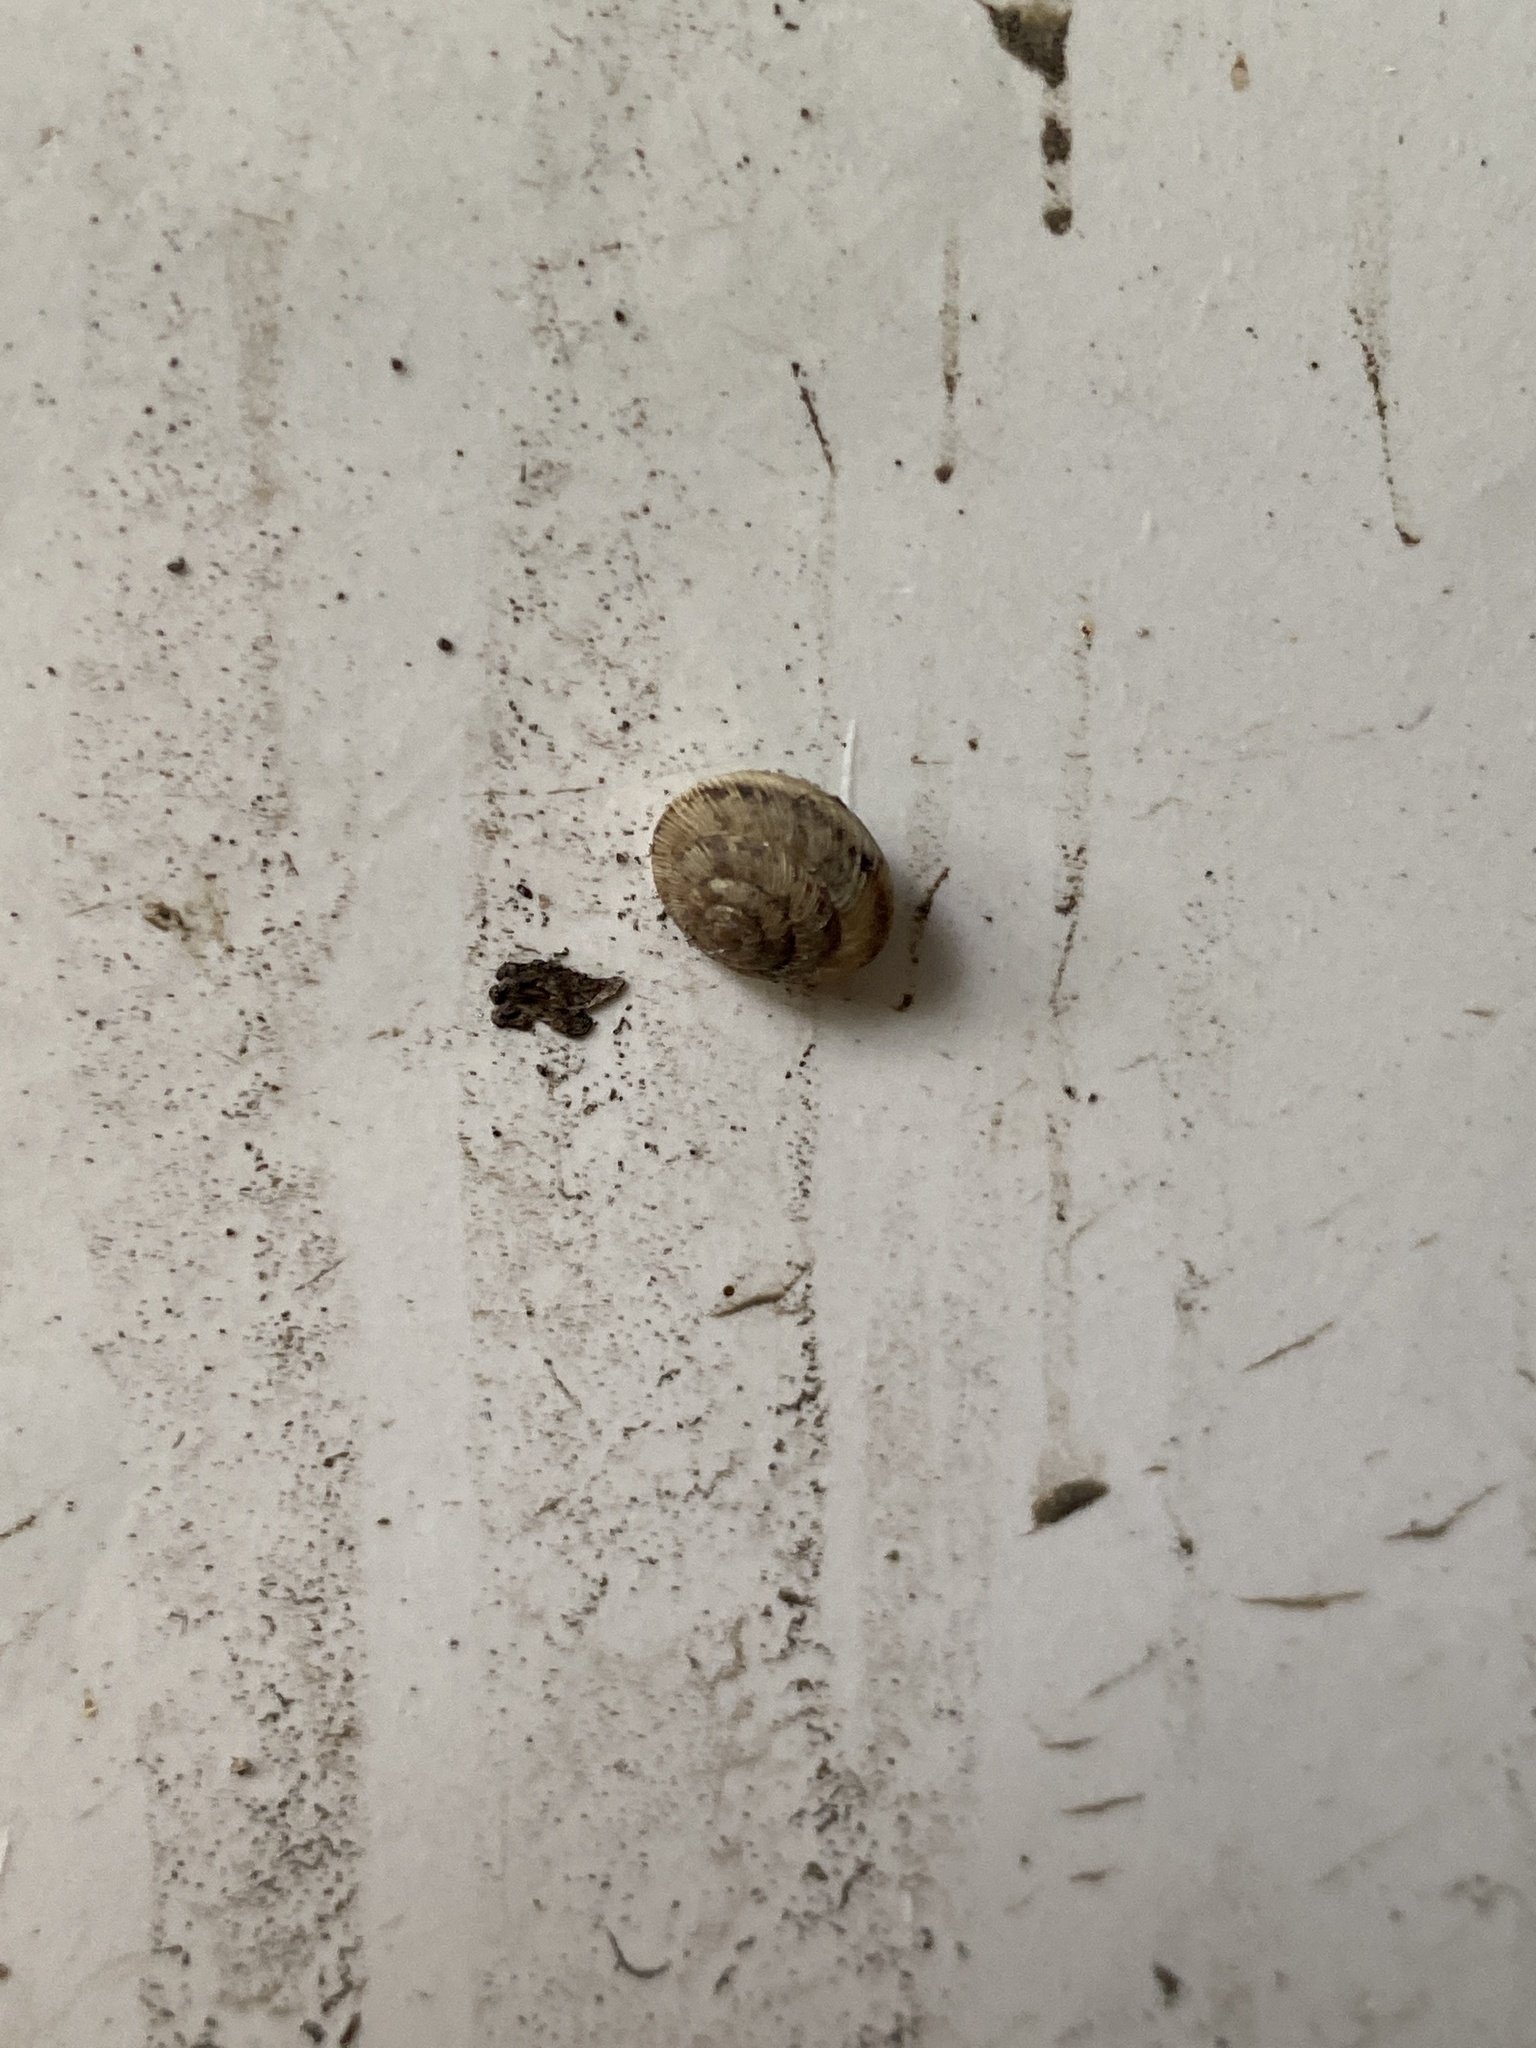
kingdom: Animalia
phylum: Mollusca
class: Gastropoda
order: Stylommatophora
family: Discidae
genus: Discus
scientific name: Discus rotundatus
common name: Rounded snail
